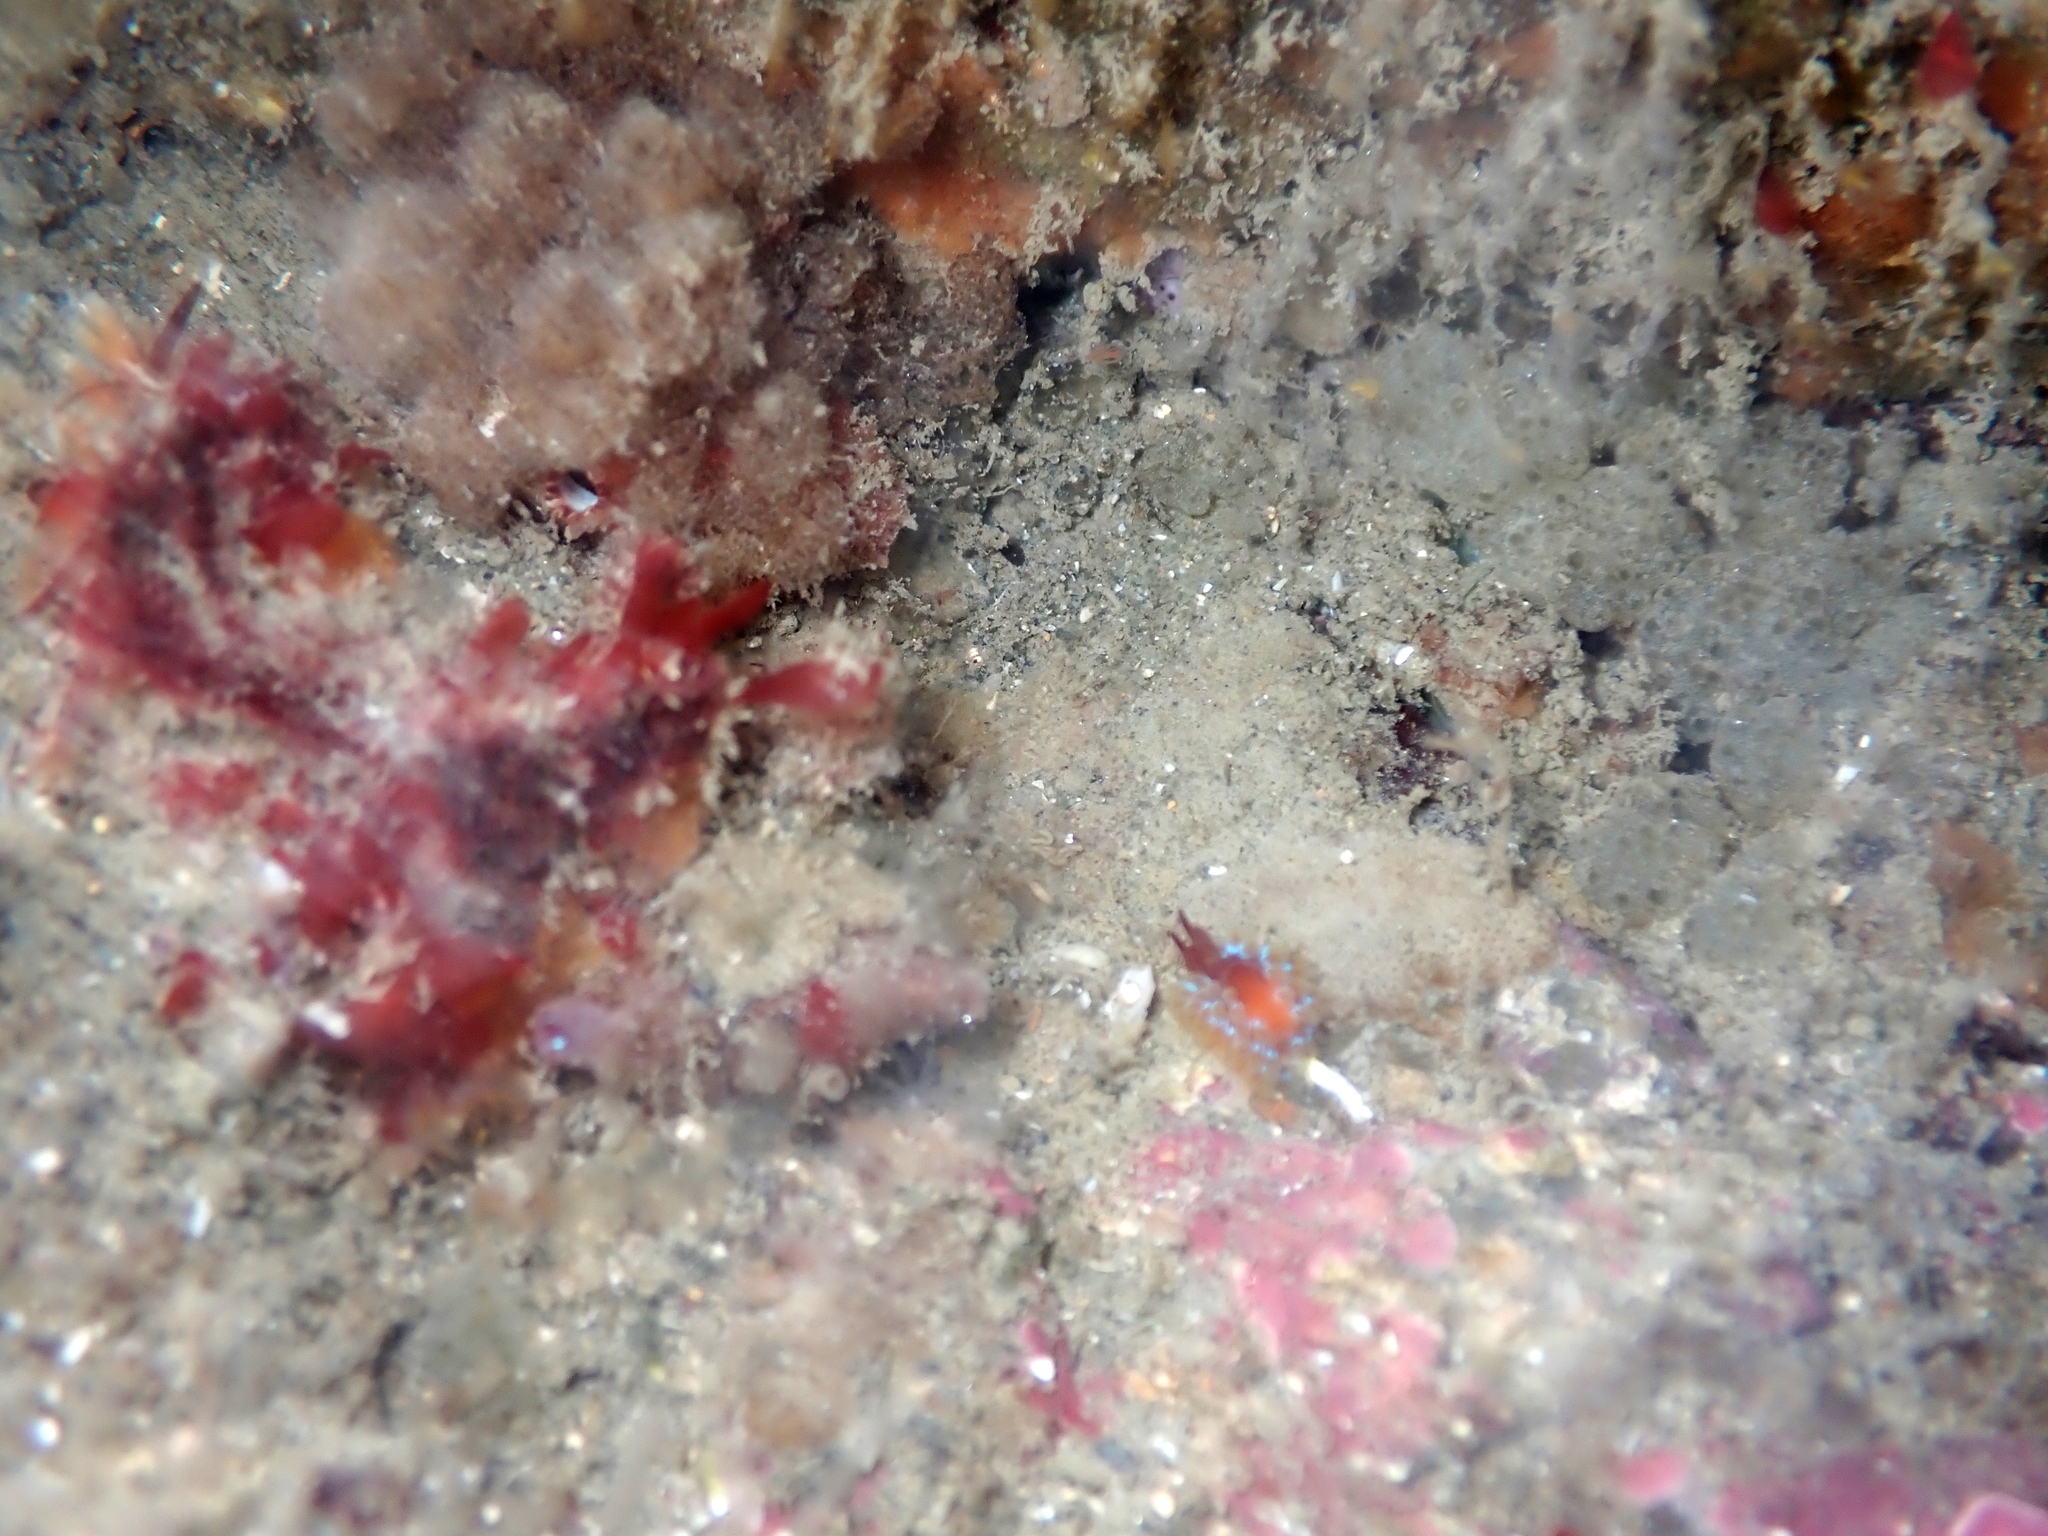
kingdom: Animalia
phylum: Mollusca
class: Gastropoda
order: Nudibranchia
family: Proctonotidae
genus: Caldukia
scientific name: Caldukia rubiginosa
